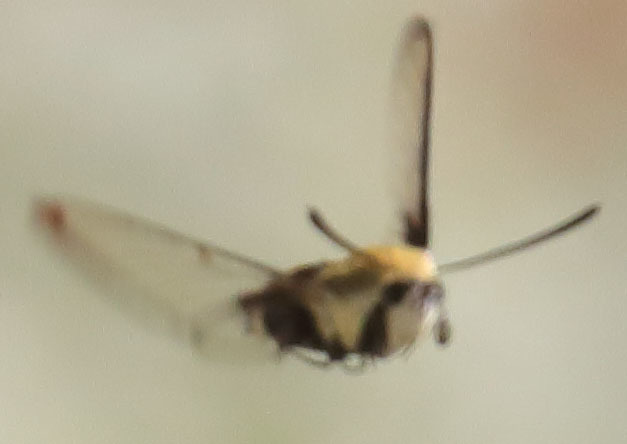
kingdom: Animalia
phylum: Arthropoda
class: Insecta
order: Lepidoptera
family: Sphingidae
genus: Hemaris
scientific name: Hemaris thetis
